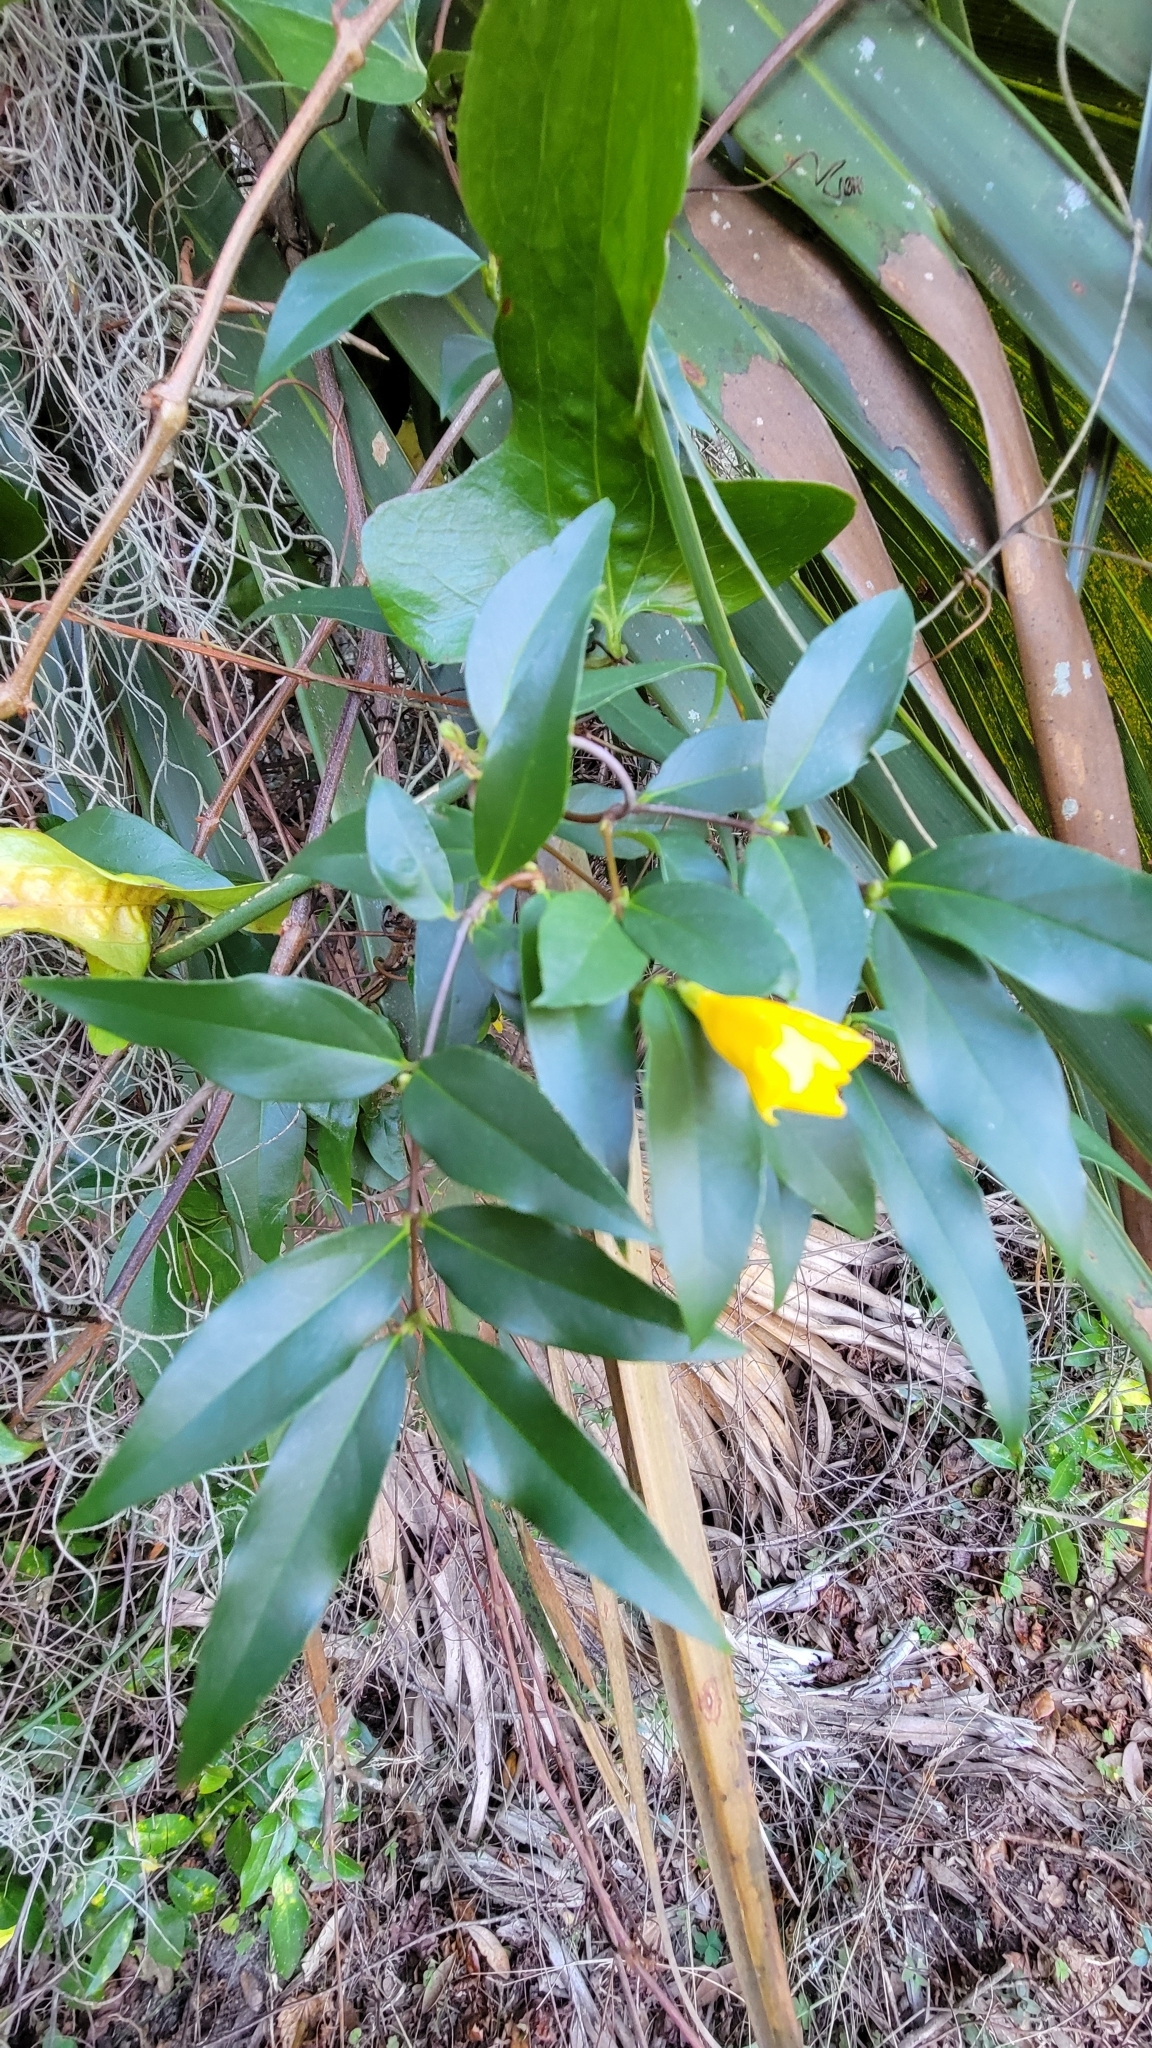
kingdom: Plantae
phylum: Tracheophyta
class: Magnoliopsida
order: Gentianales
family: Gelsemiaceae
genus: Gelsemium
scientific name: Gelsemium sempervirens
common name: Carolina-jasmine
